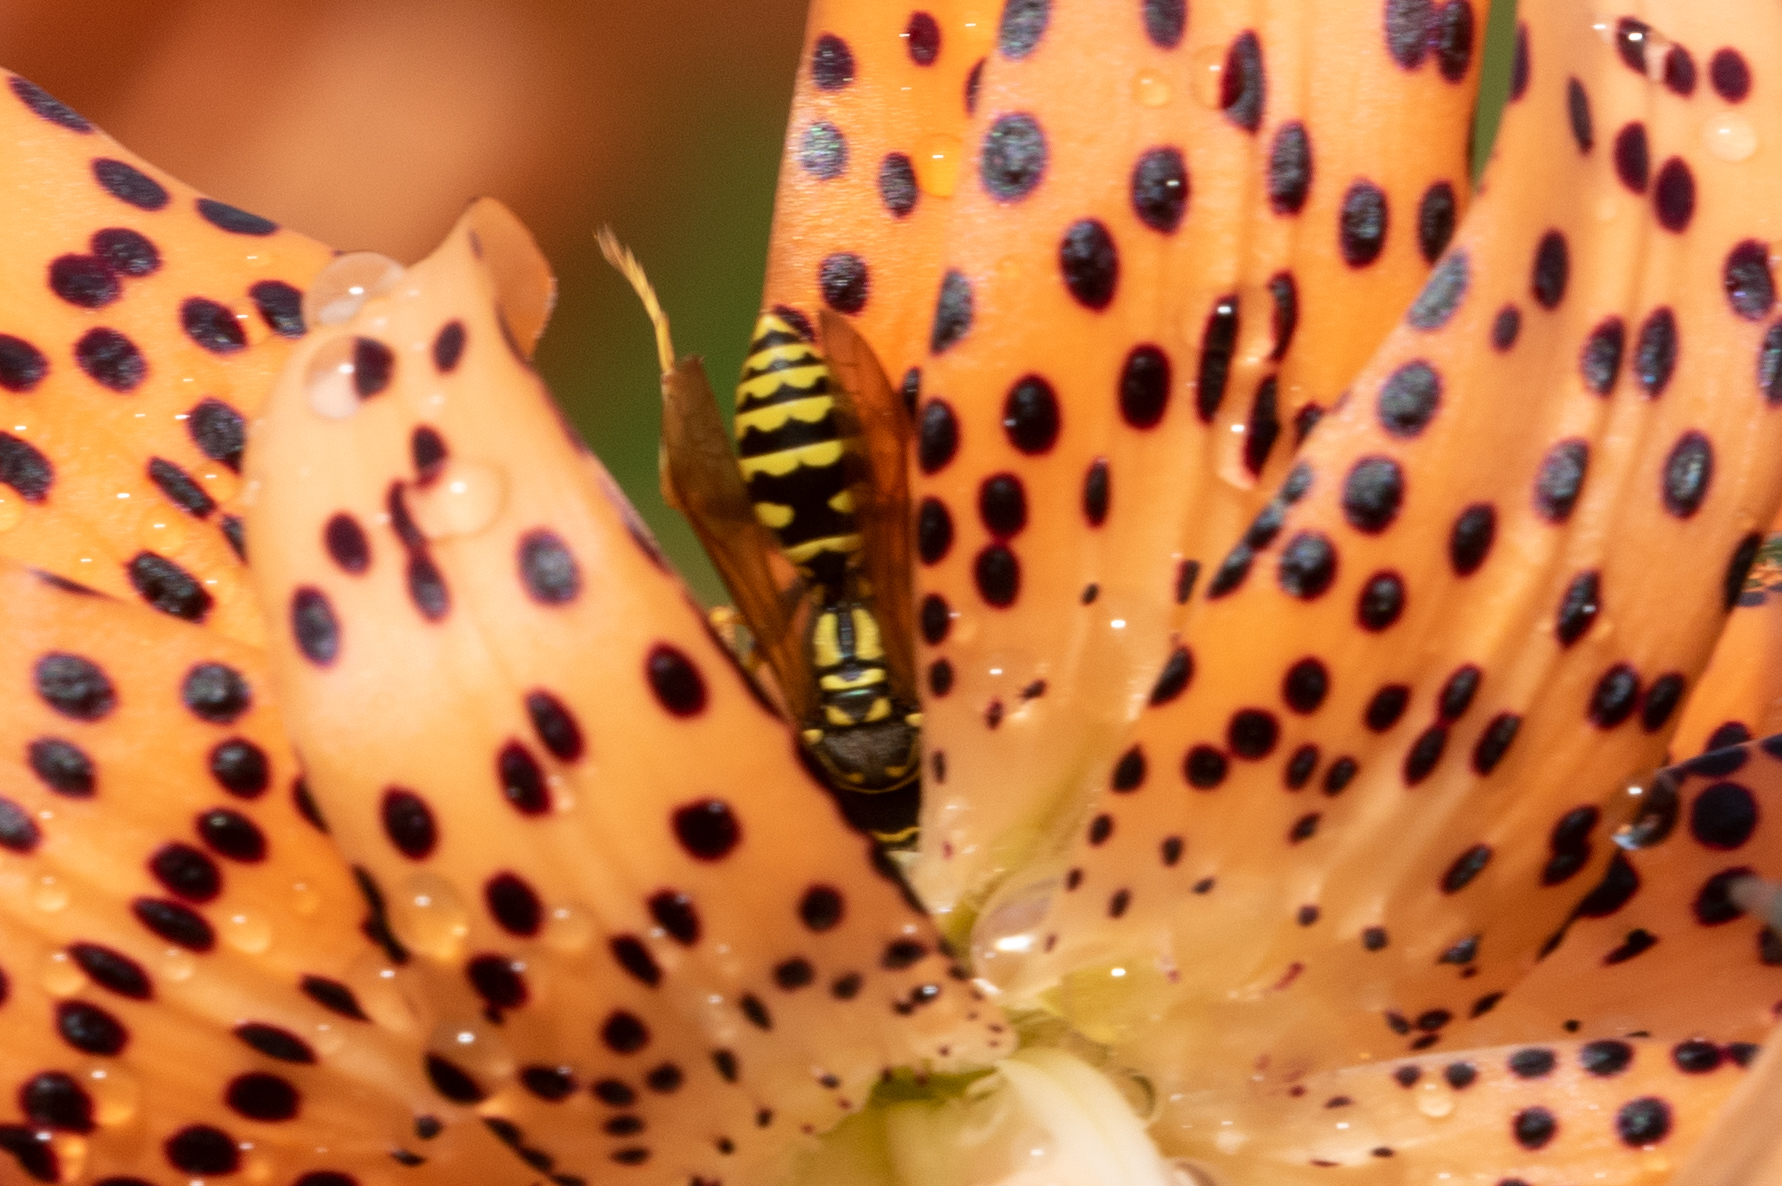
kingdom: Animalia
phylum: Arthropoda
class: Insecta
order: Hymenoptera
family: Eumenidae
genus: Polistes
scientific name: Polistes dominula
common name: Paper wasp
